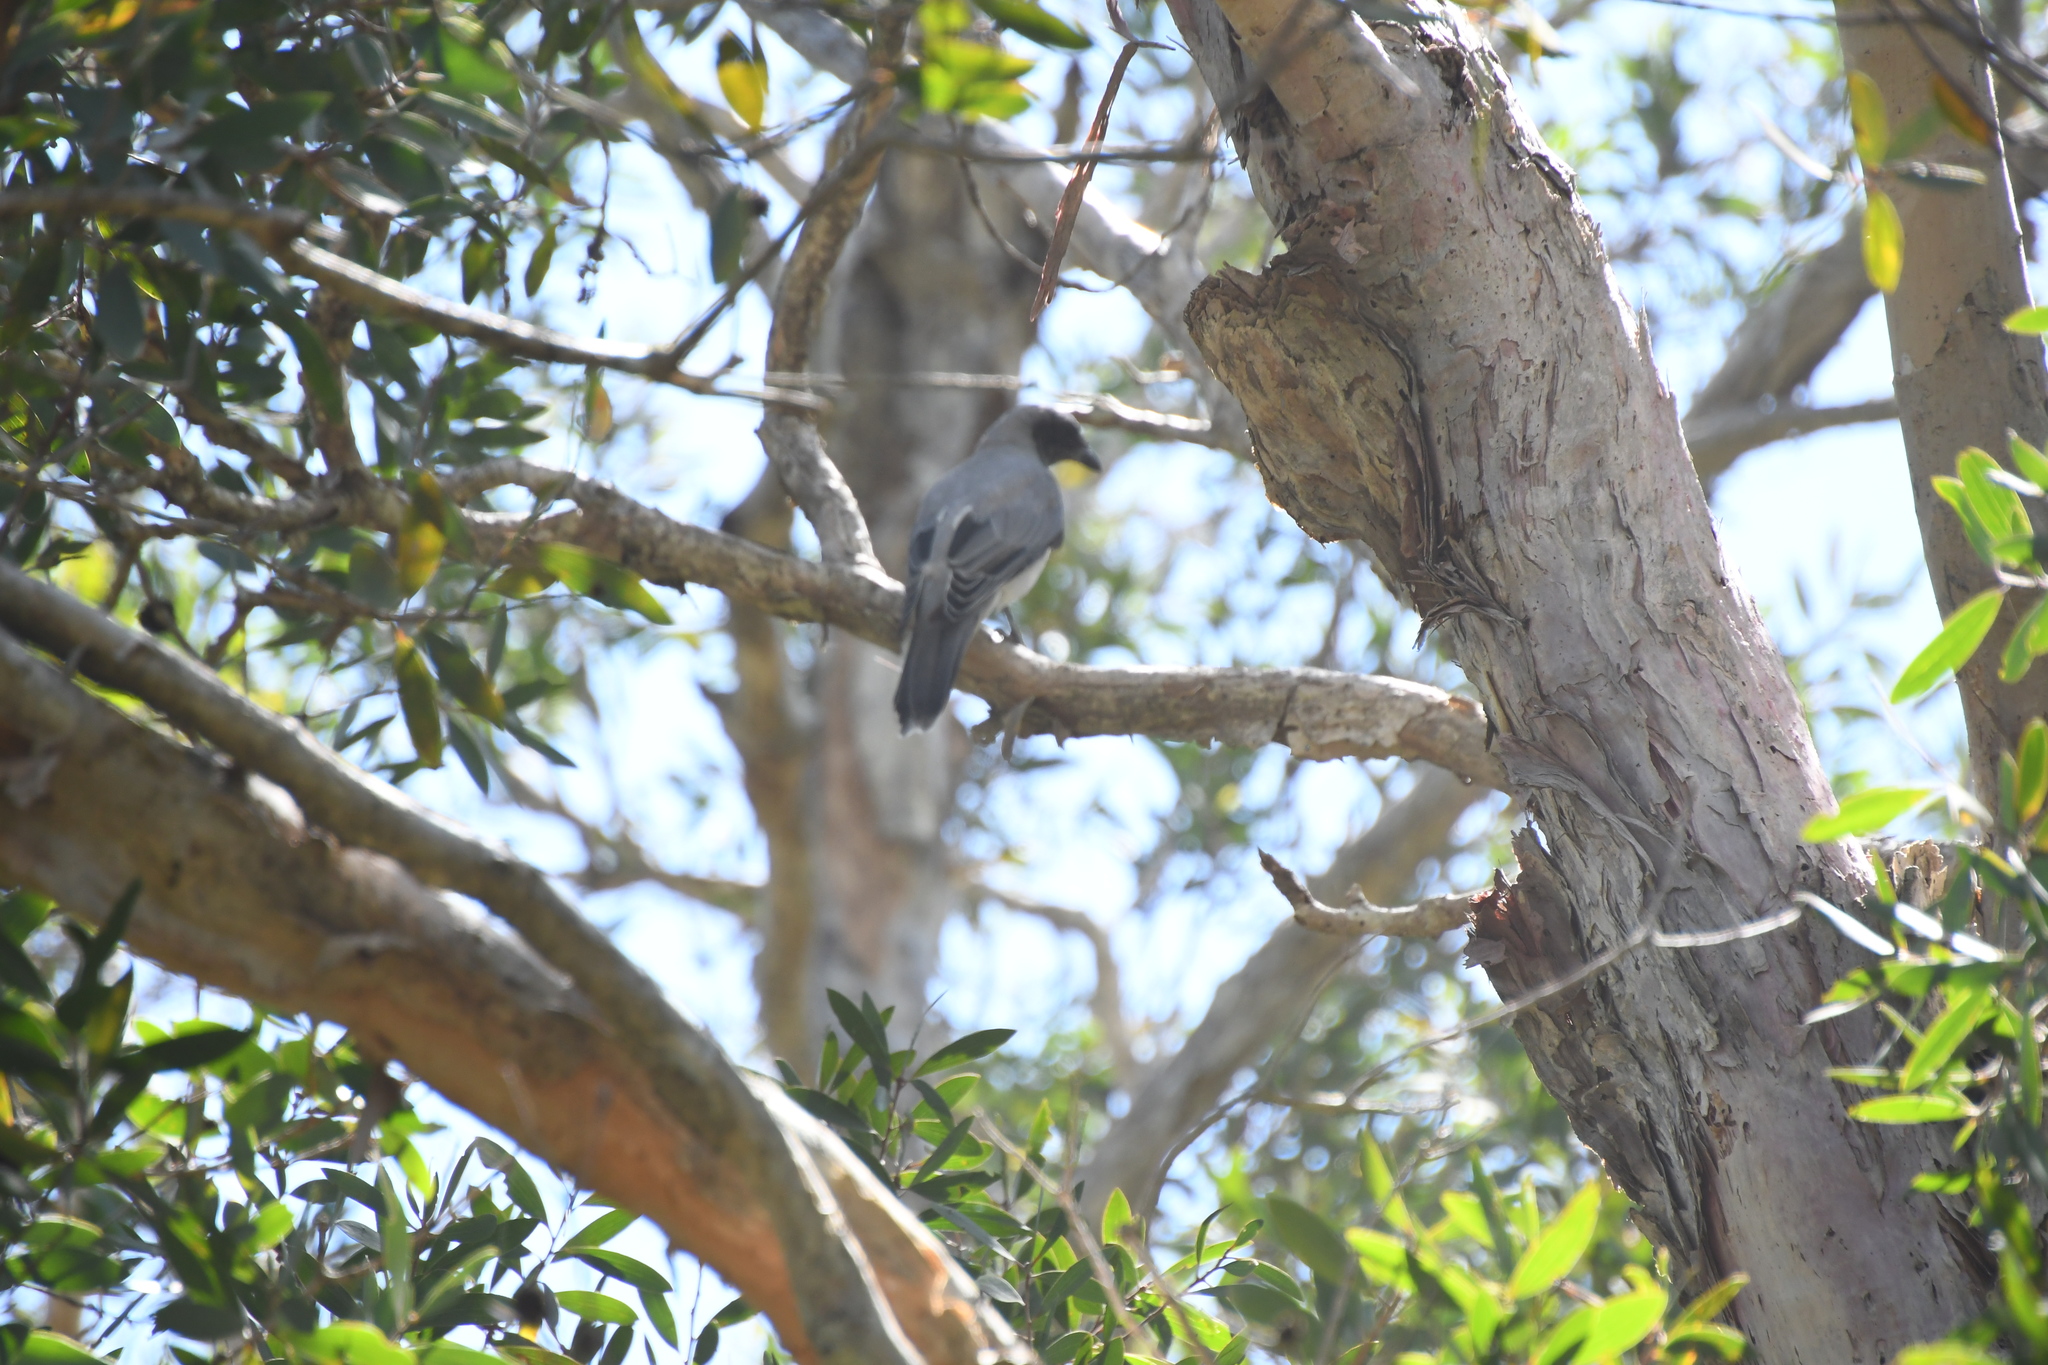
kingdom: Animalia
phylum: Chordata
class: Aves
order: Passeriformes
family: Campephagidae
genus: Coracina
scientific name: Coracina novaehollandiae
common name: Black-faced cuckooshrike
